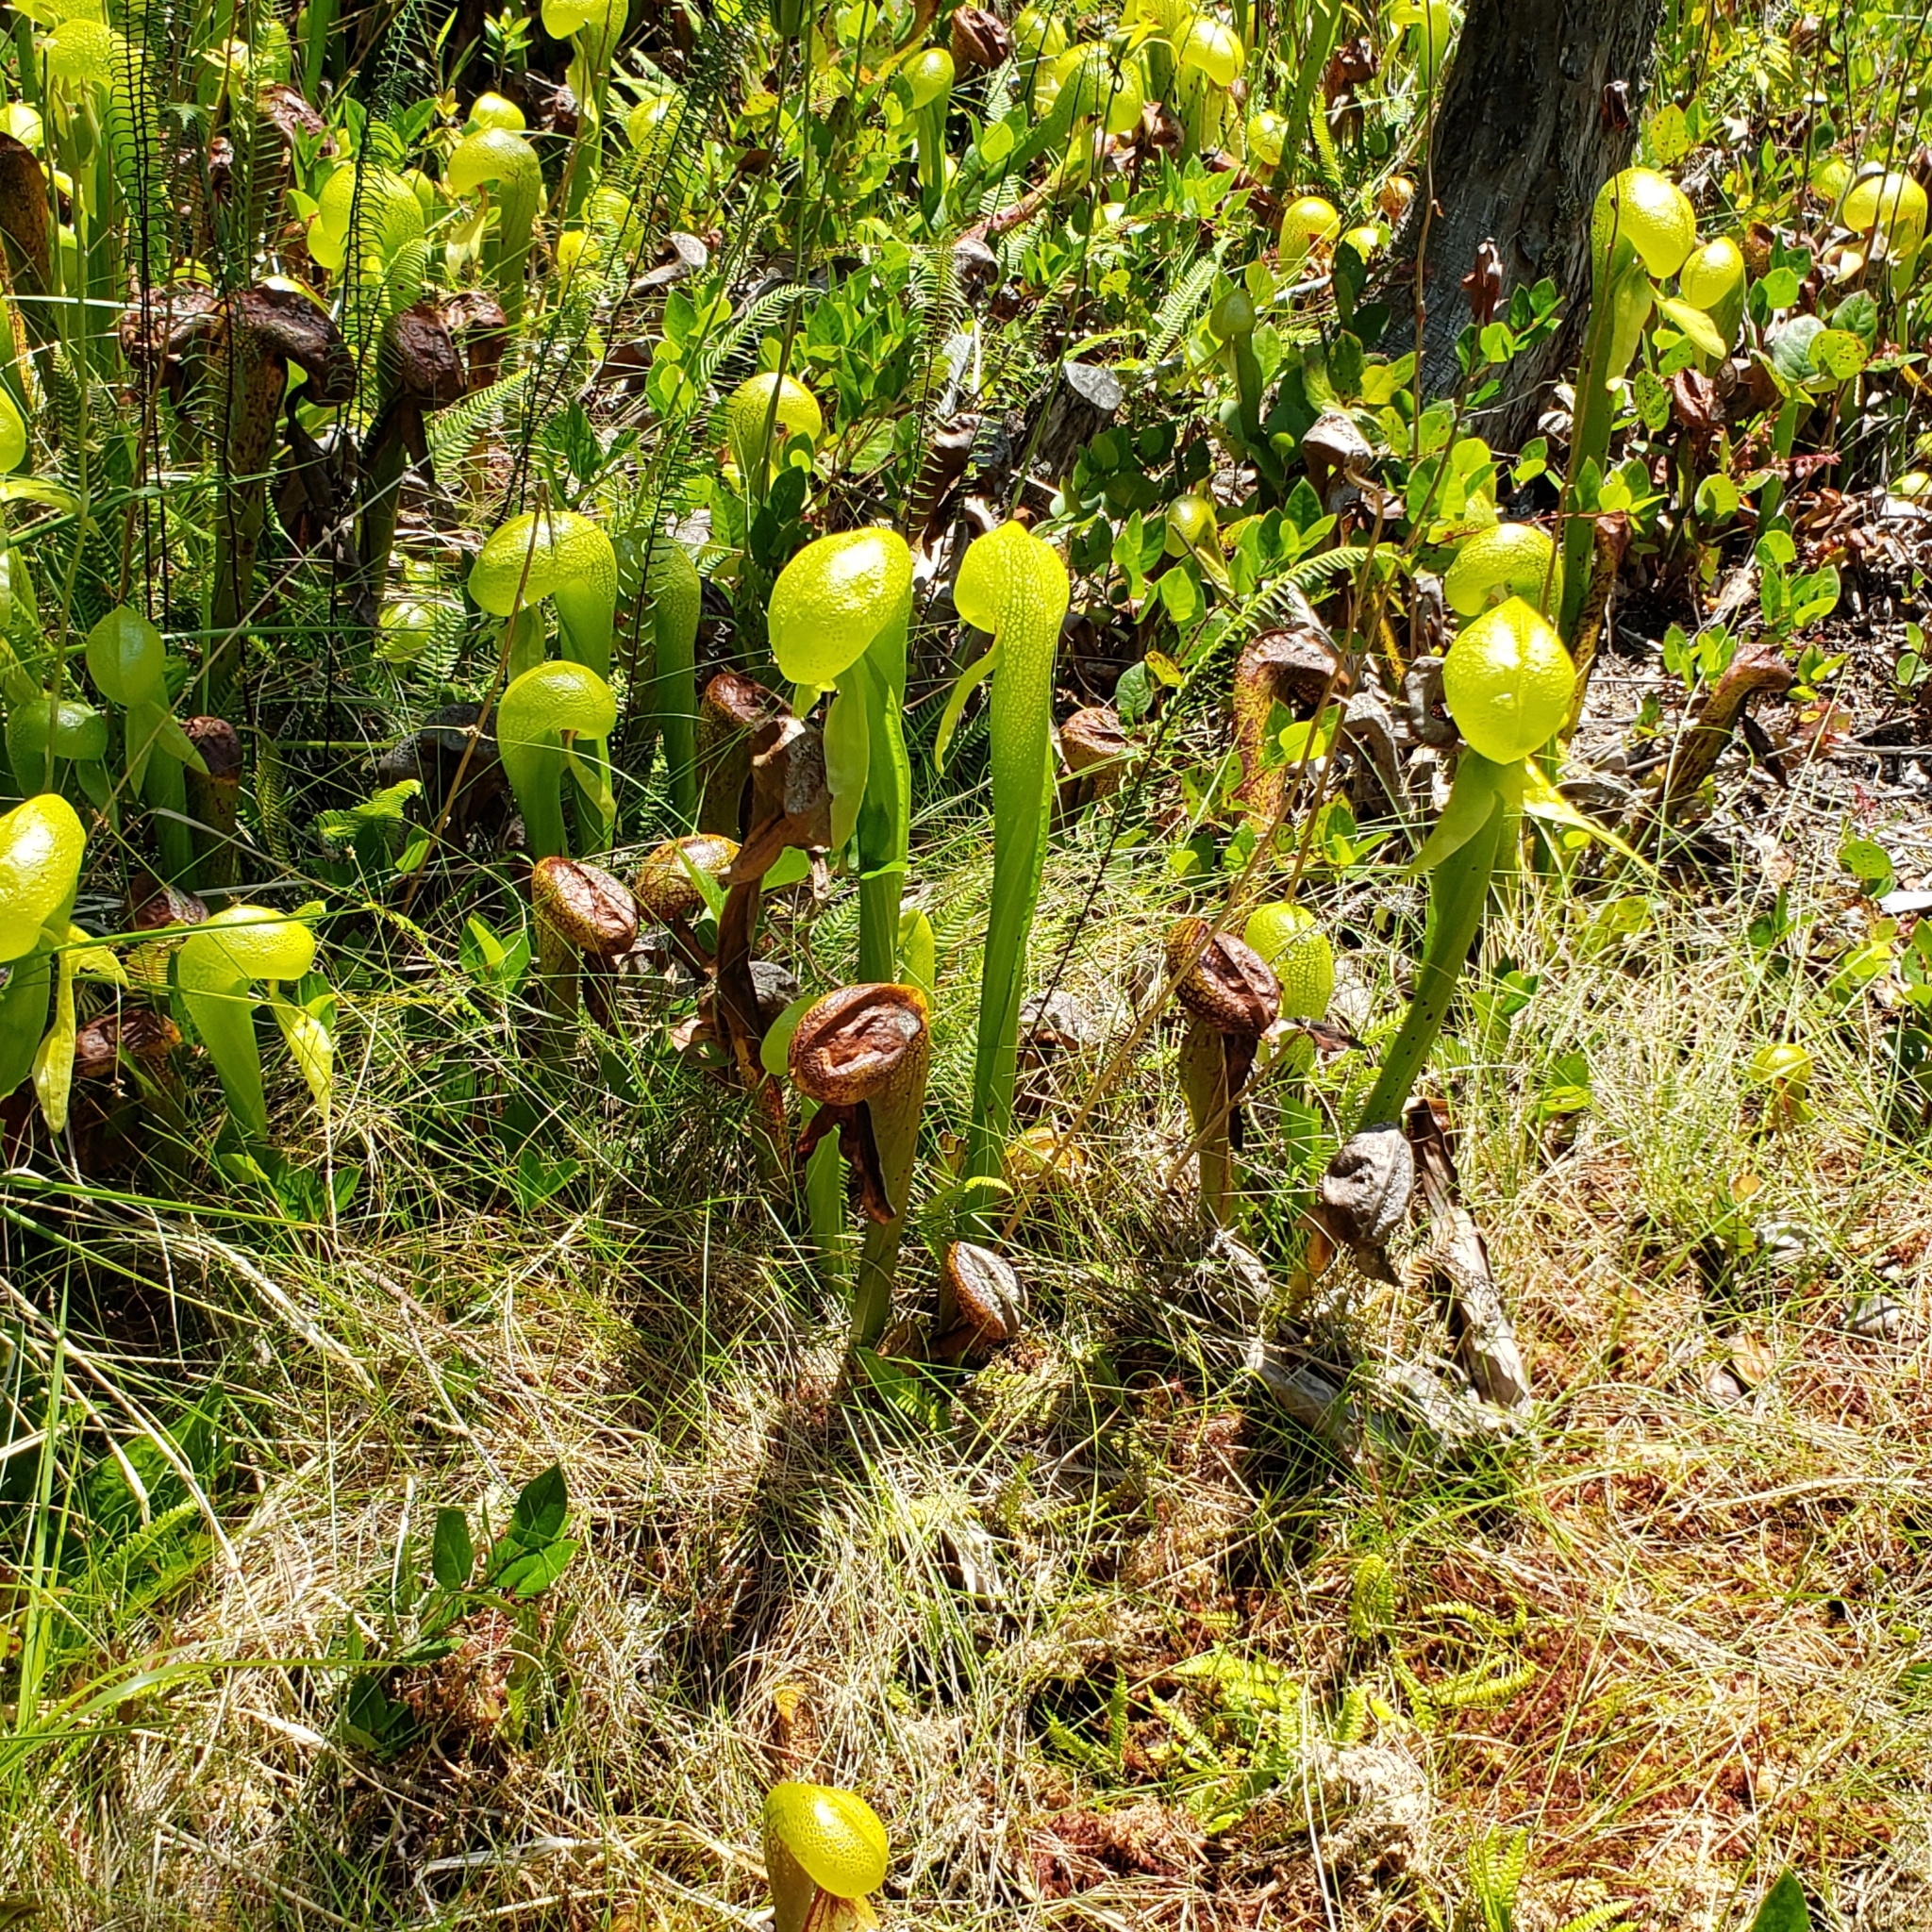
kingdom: Plantae
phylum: Tracheophyta
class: Magnoliopsida
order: Ericales
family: Sarraceniaceae
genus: Darlingtonia
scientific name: Darlingtonia californica
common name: California pitcher plant
